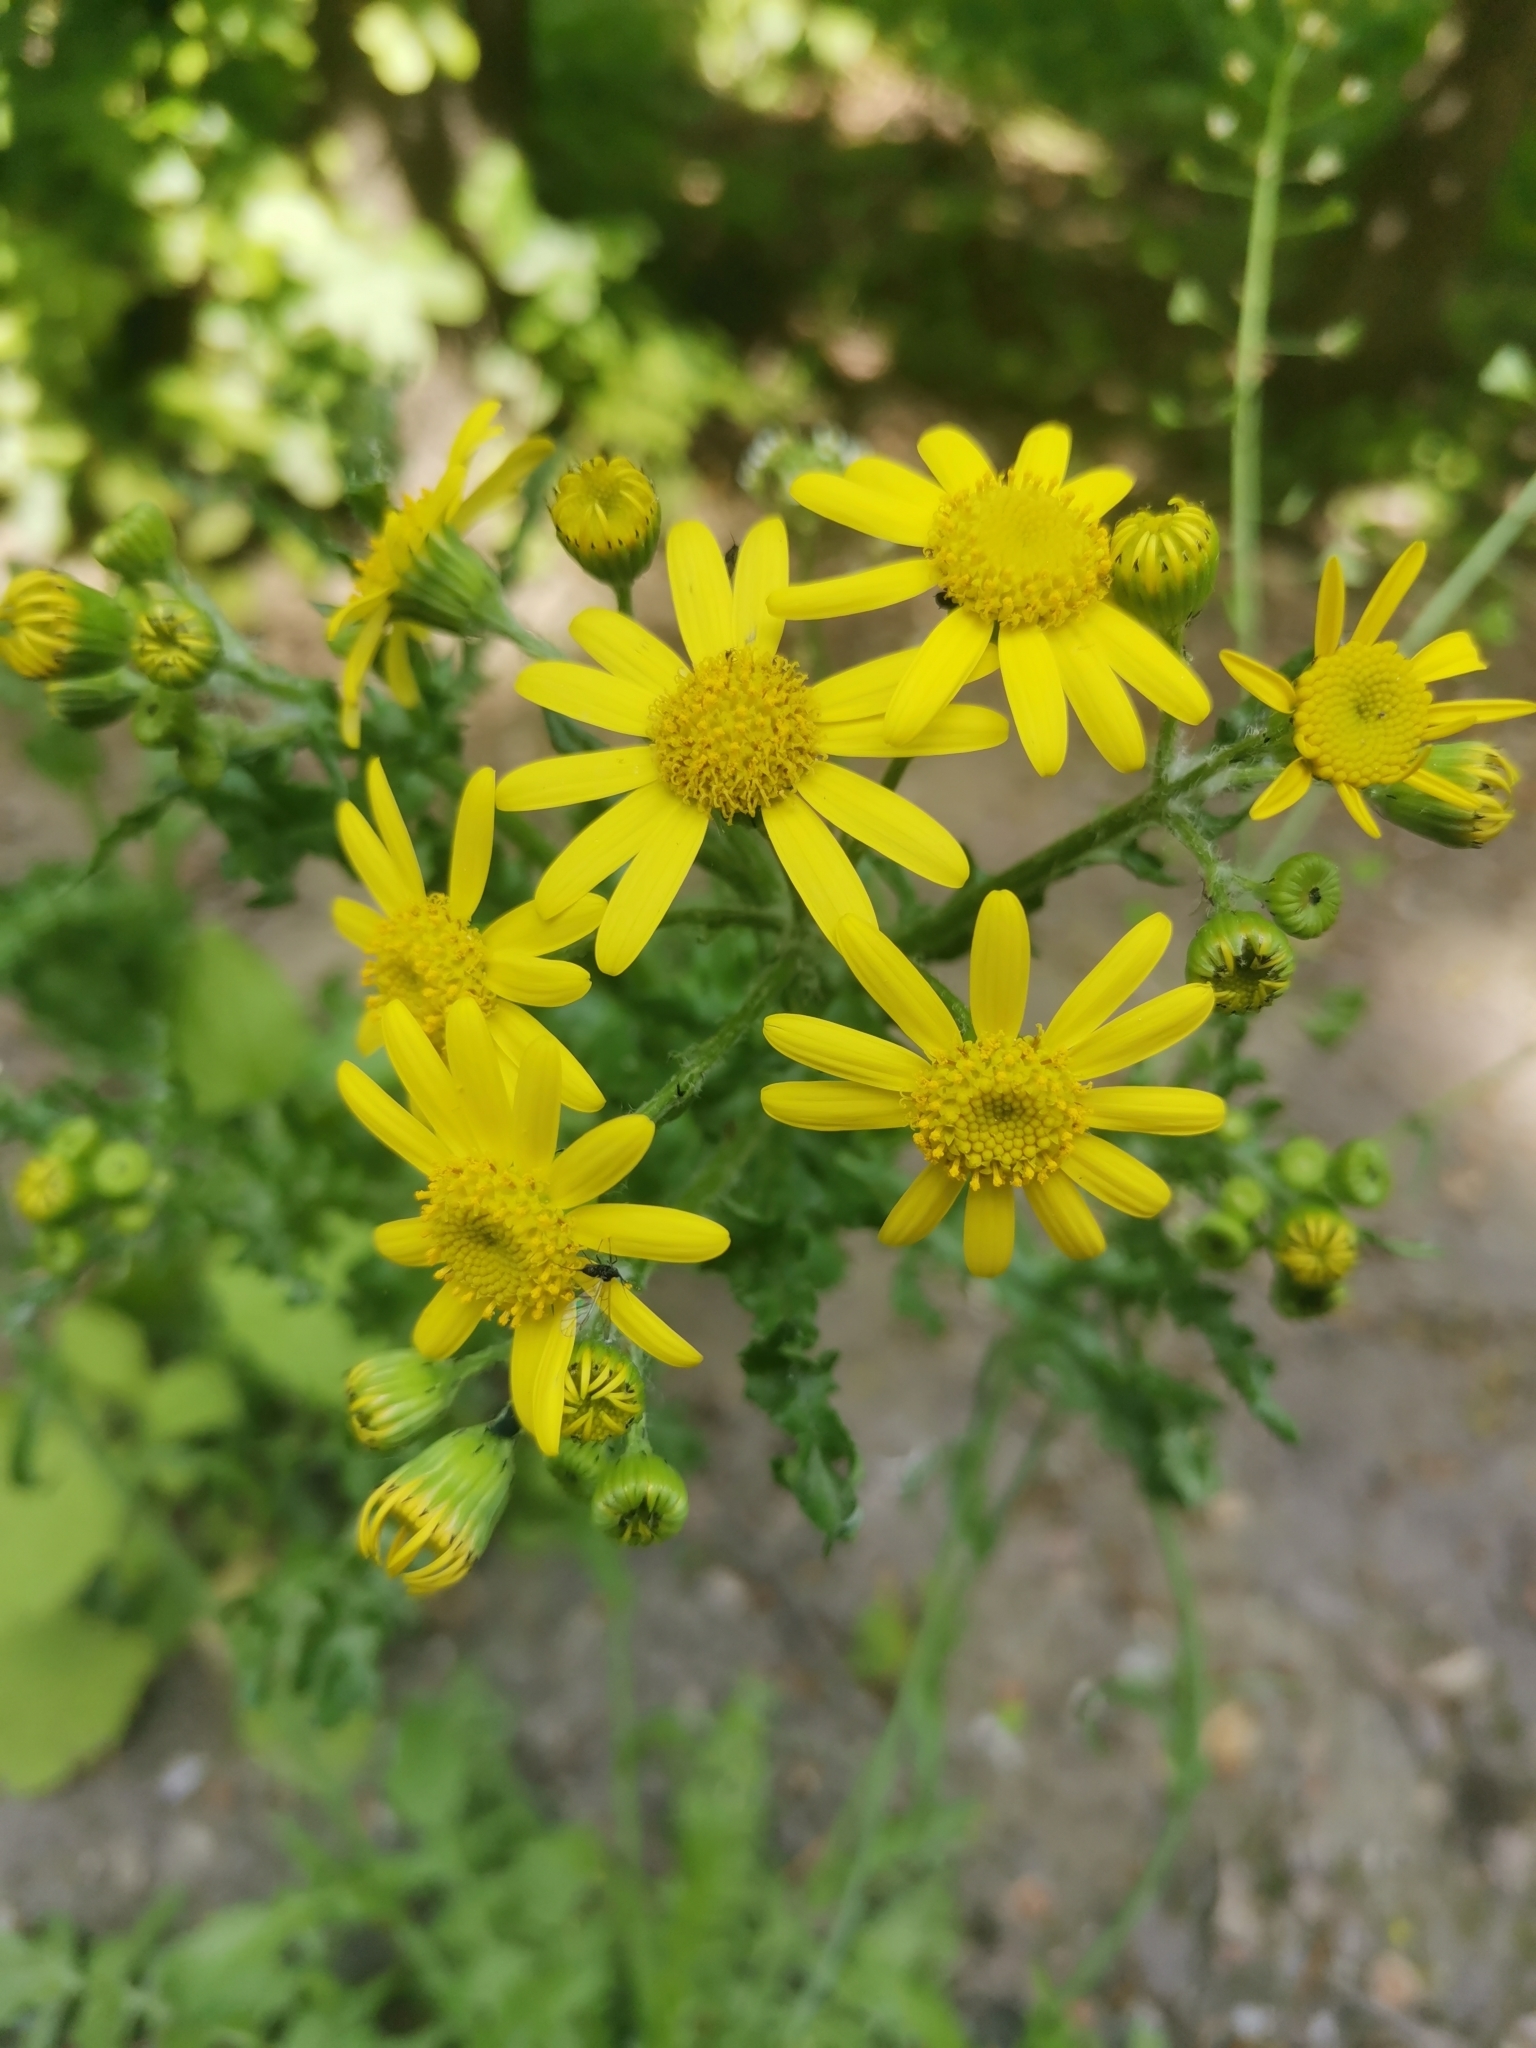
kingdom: Plantae
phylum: Tracheophyta
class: Magnoliopsida
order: Asterales
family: Asteraceae
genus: Senecio
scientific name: Senecio vernalis
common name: Eastern groundsel
